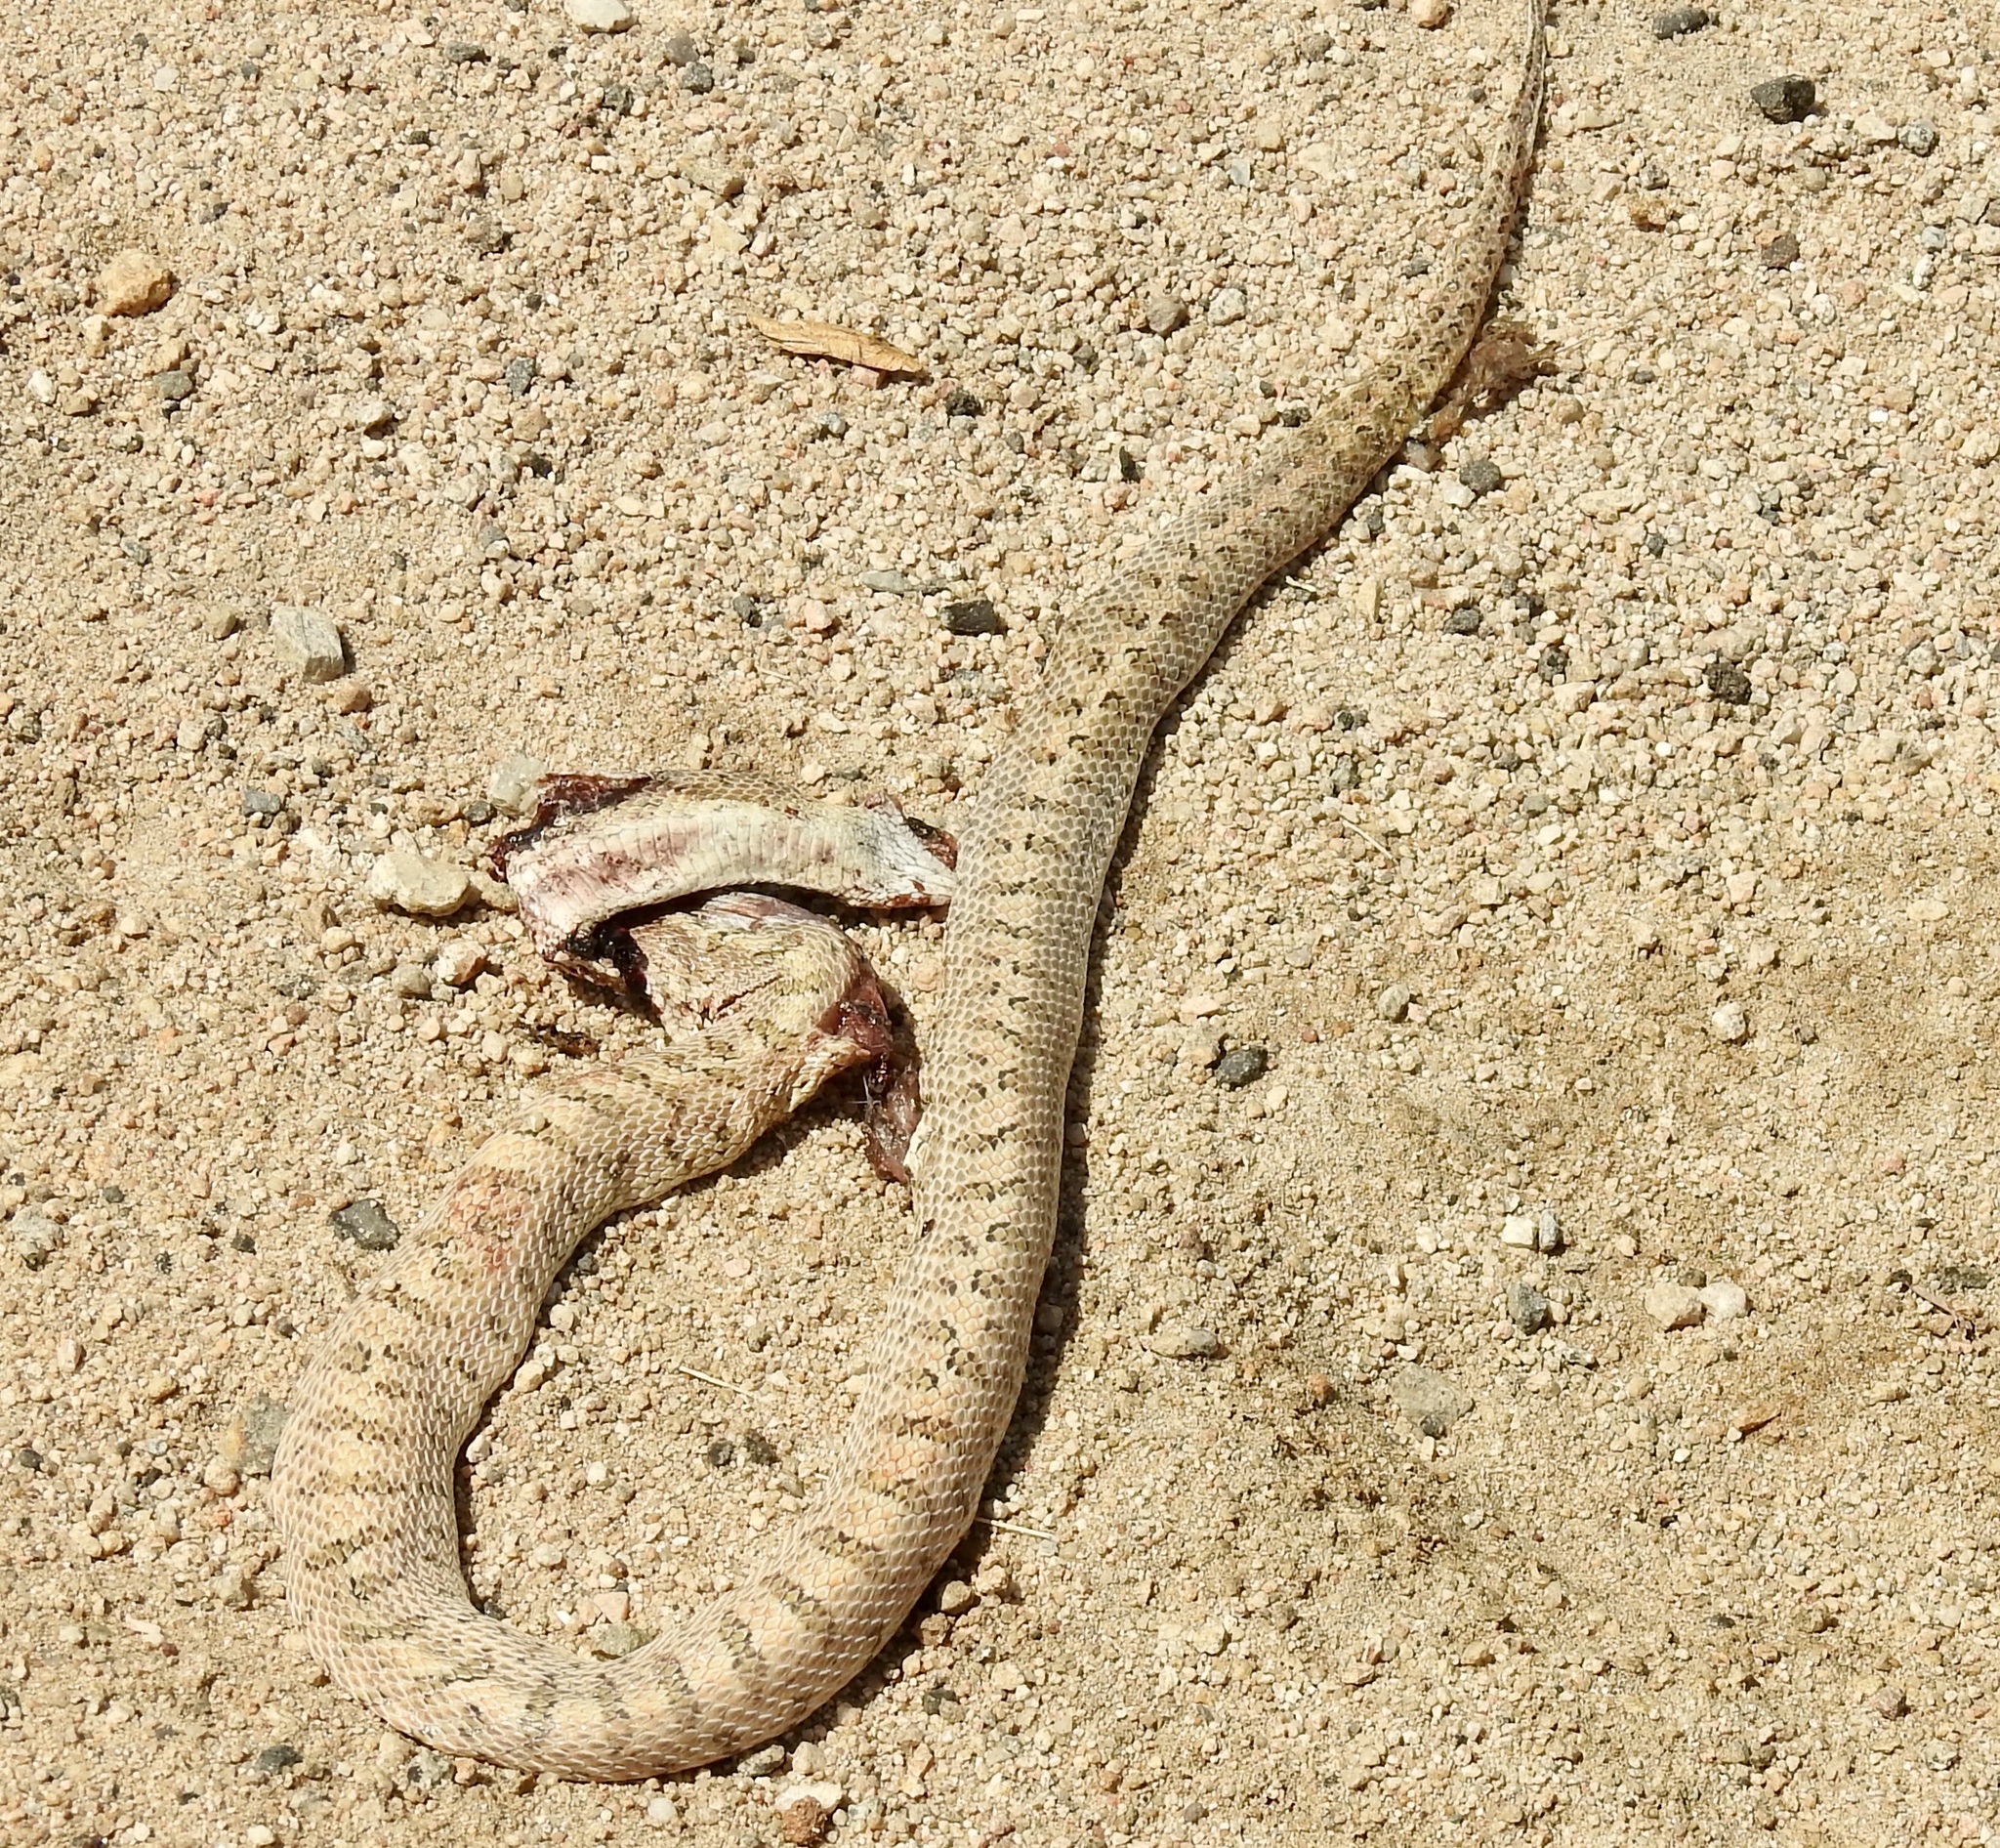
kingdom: Animalia
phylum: Chordata
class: Squamata
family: Colubridae
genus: Arizona
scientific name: Arizona elegans
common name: Glossy snake
